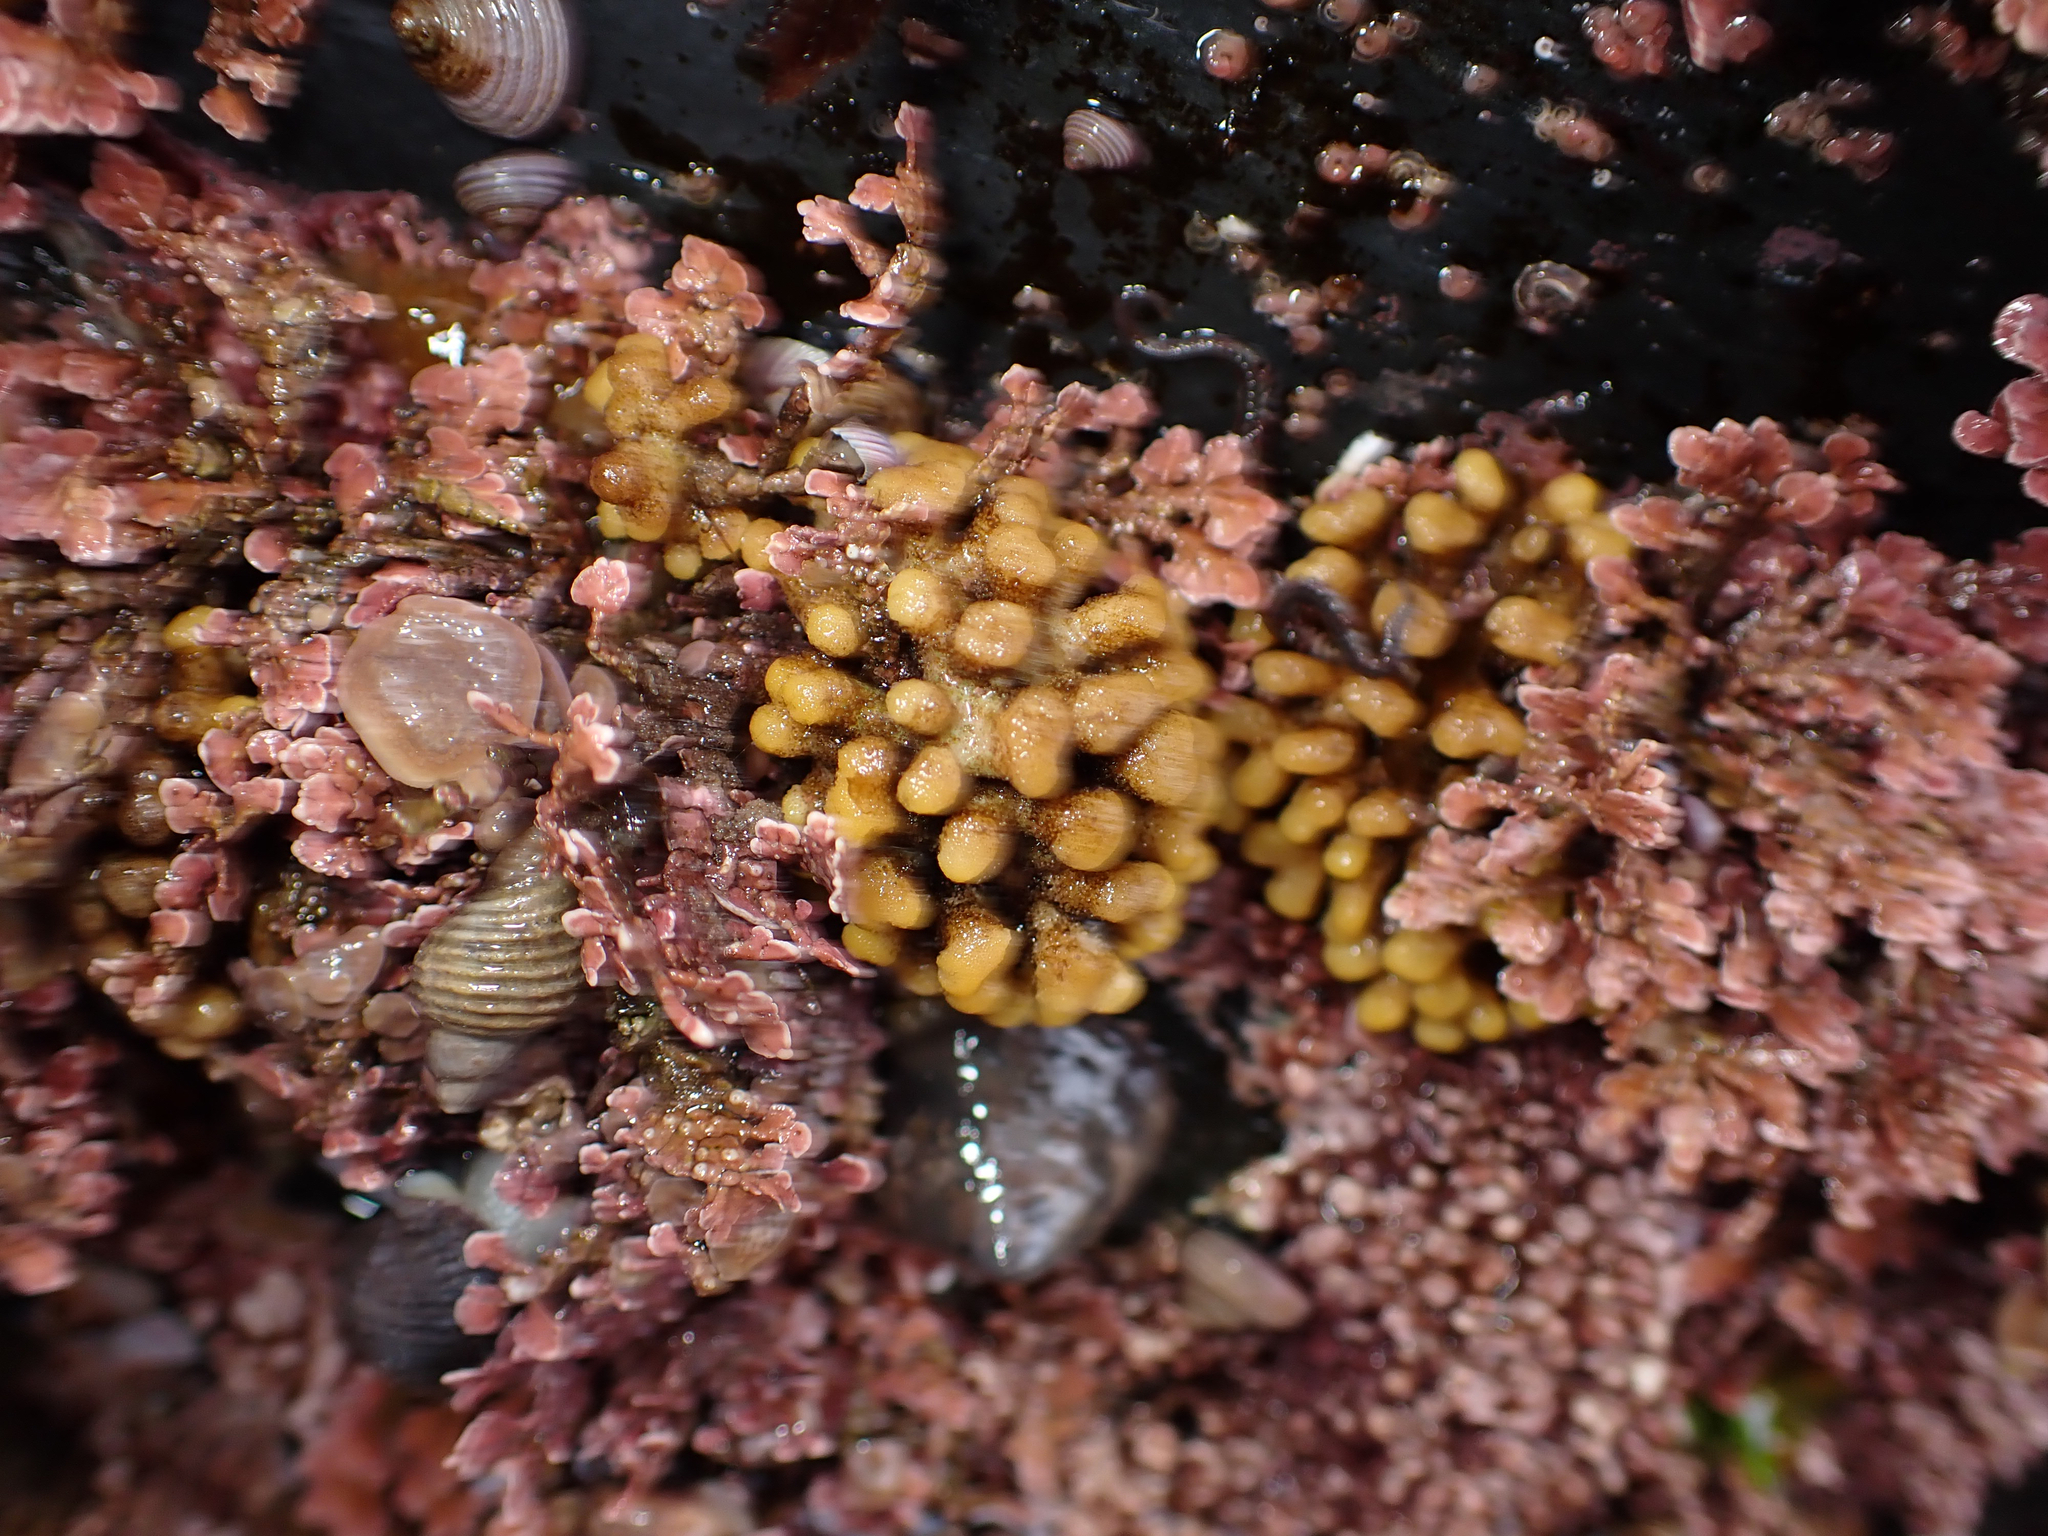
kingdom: Animalia
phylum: Bryozoa
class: Stenolaemata
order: Cyclostomatida
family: Heteroporidae
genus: Heteropora
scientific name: Heteropora pacifica
